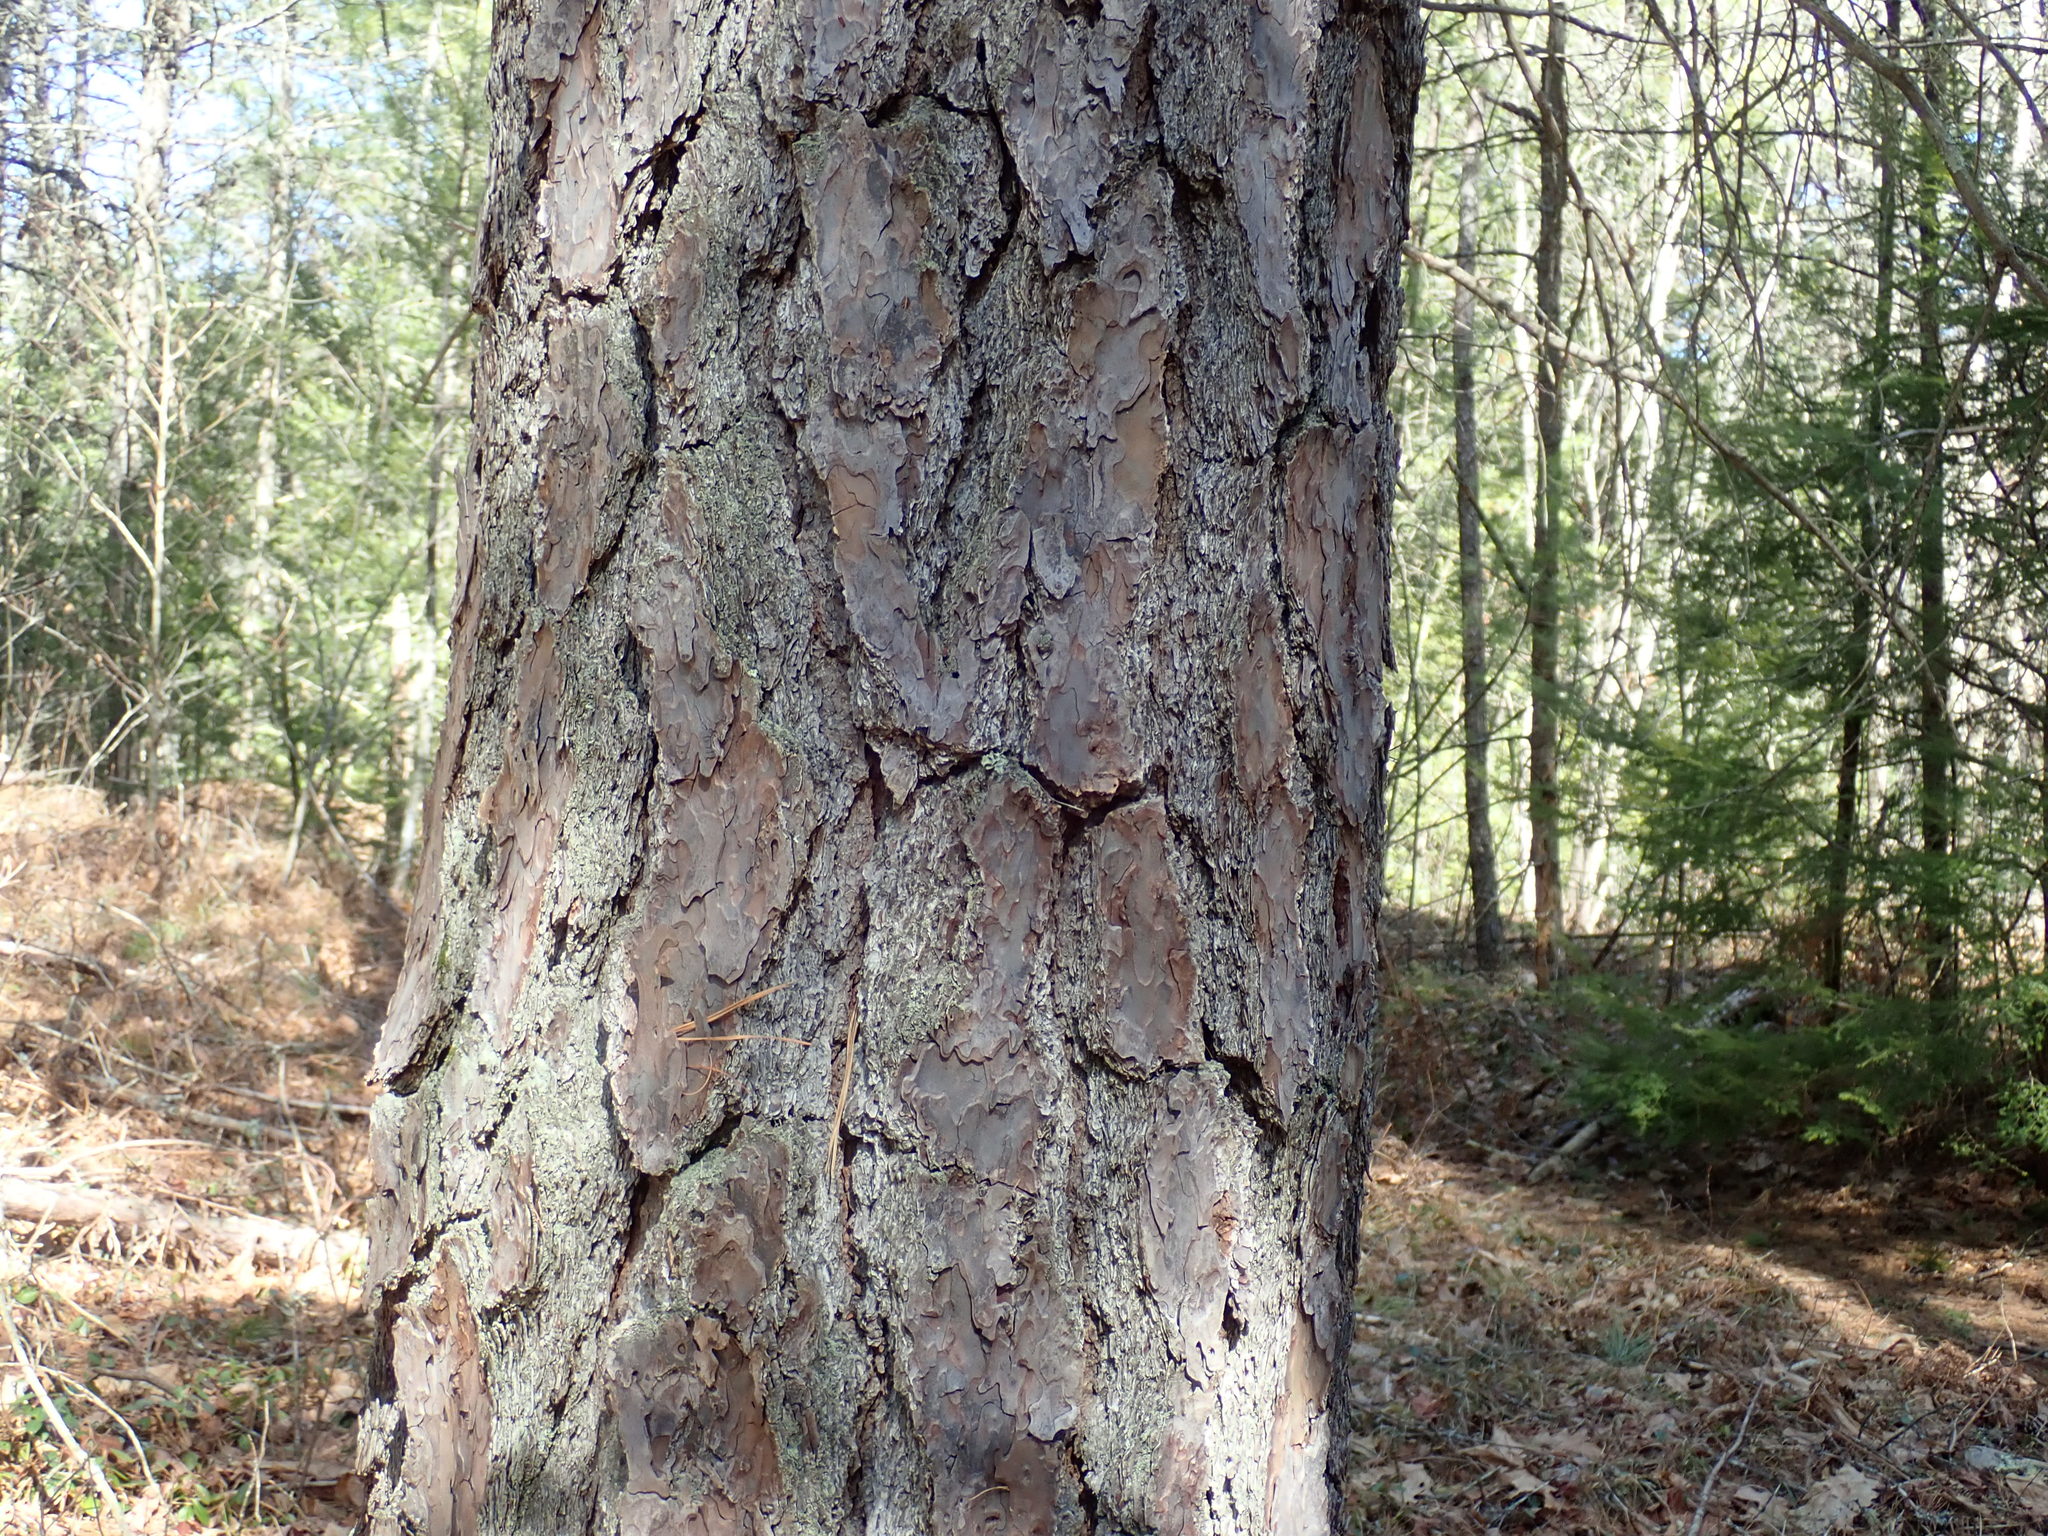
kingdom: Plantae
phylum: Tracheophyta
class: Pinopsida
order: Pinales
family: Pinaceae
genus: Pinus
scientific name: Pinus rigida
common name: Pitch pine
